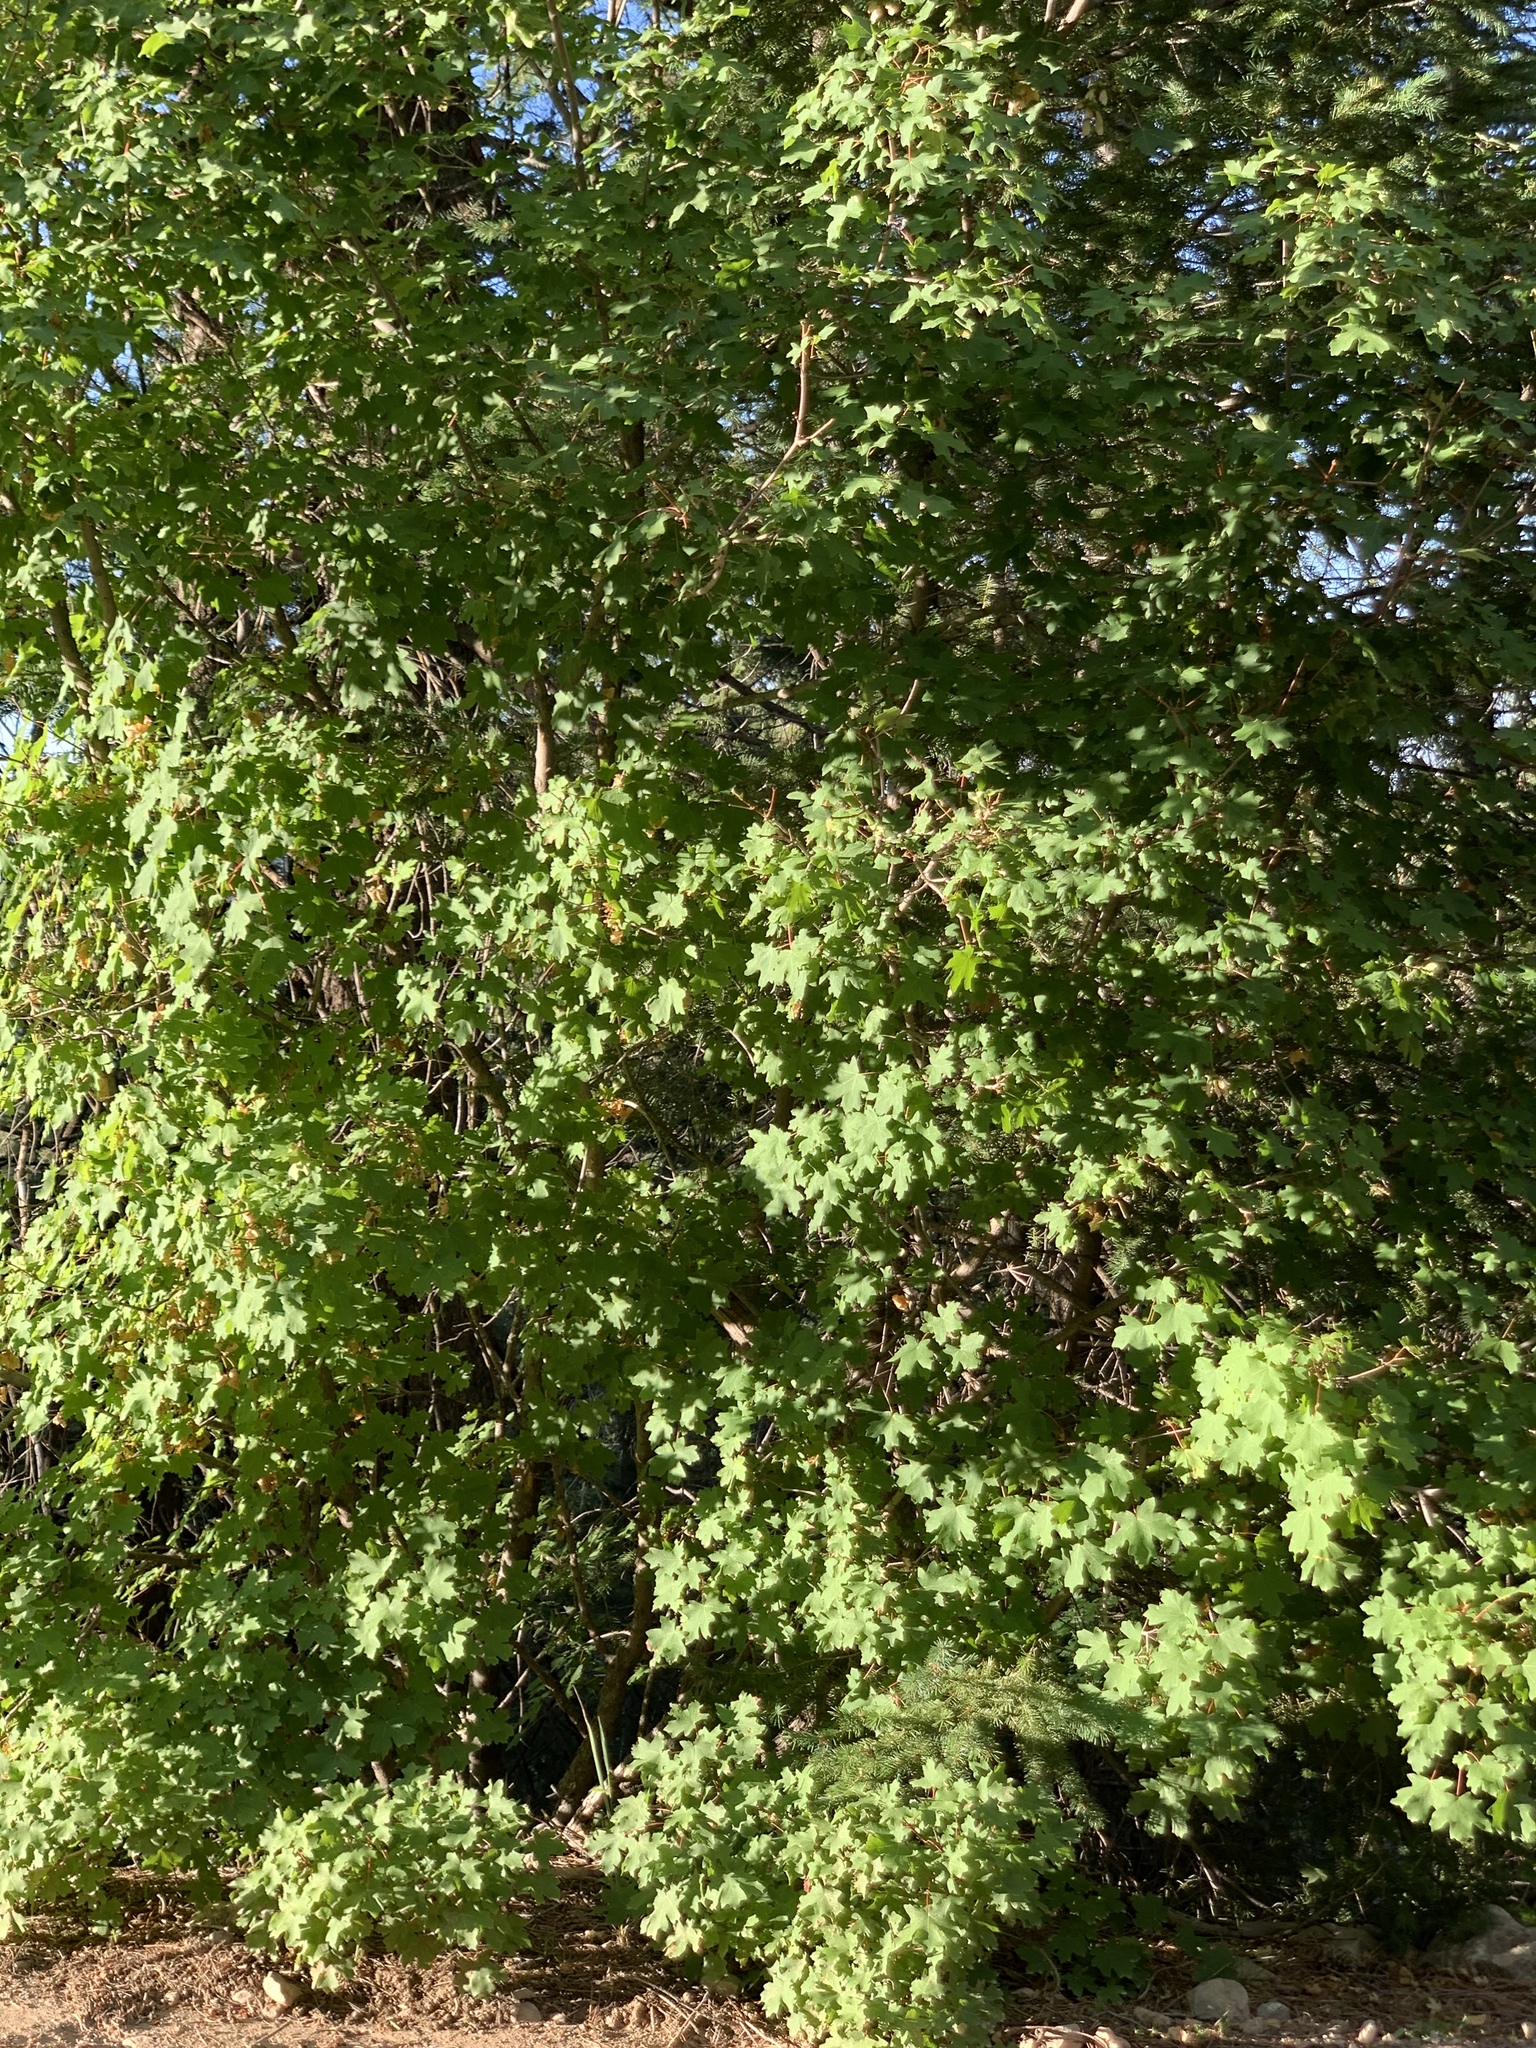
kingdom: Plantae
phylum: Tracheophyta
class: Magnoliopsida
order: Sapindales
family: Sapindaceae
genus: Acer
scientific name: Acer grandidentatum
